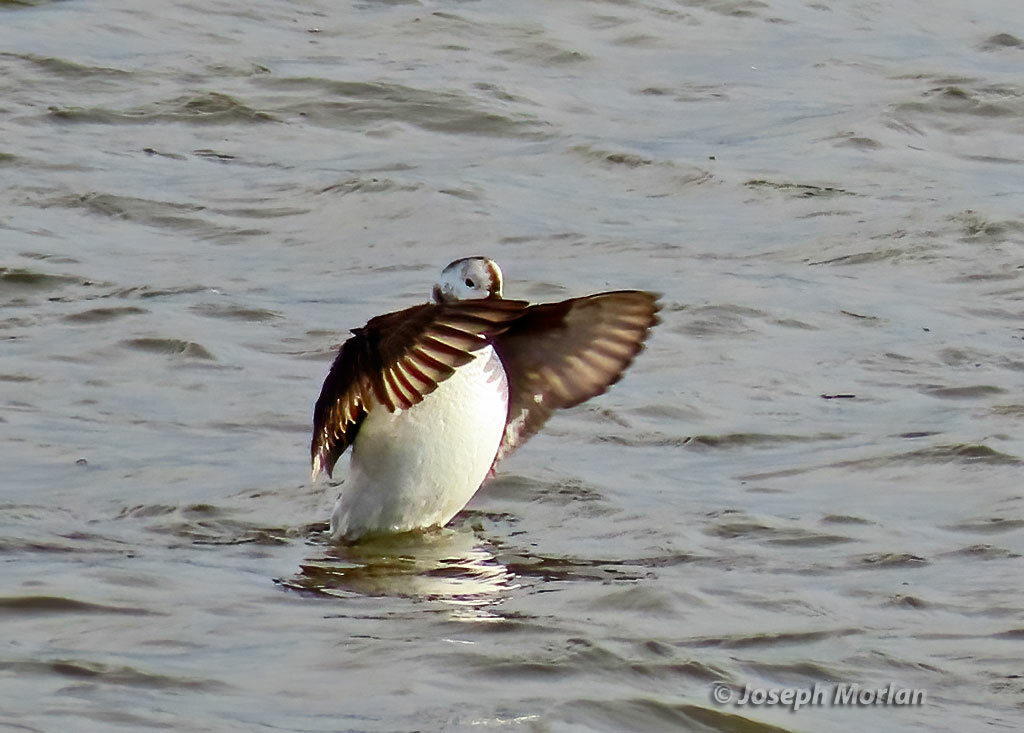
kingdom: Animalia
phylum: Chordata
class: Aves
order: Anseriformes
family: Anatidae
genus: Clangula
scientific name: Clangula hyemalis
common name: Long-tailed duck
